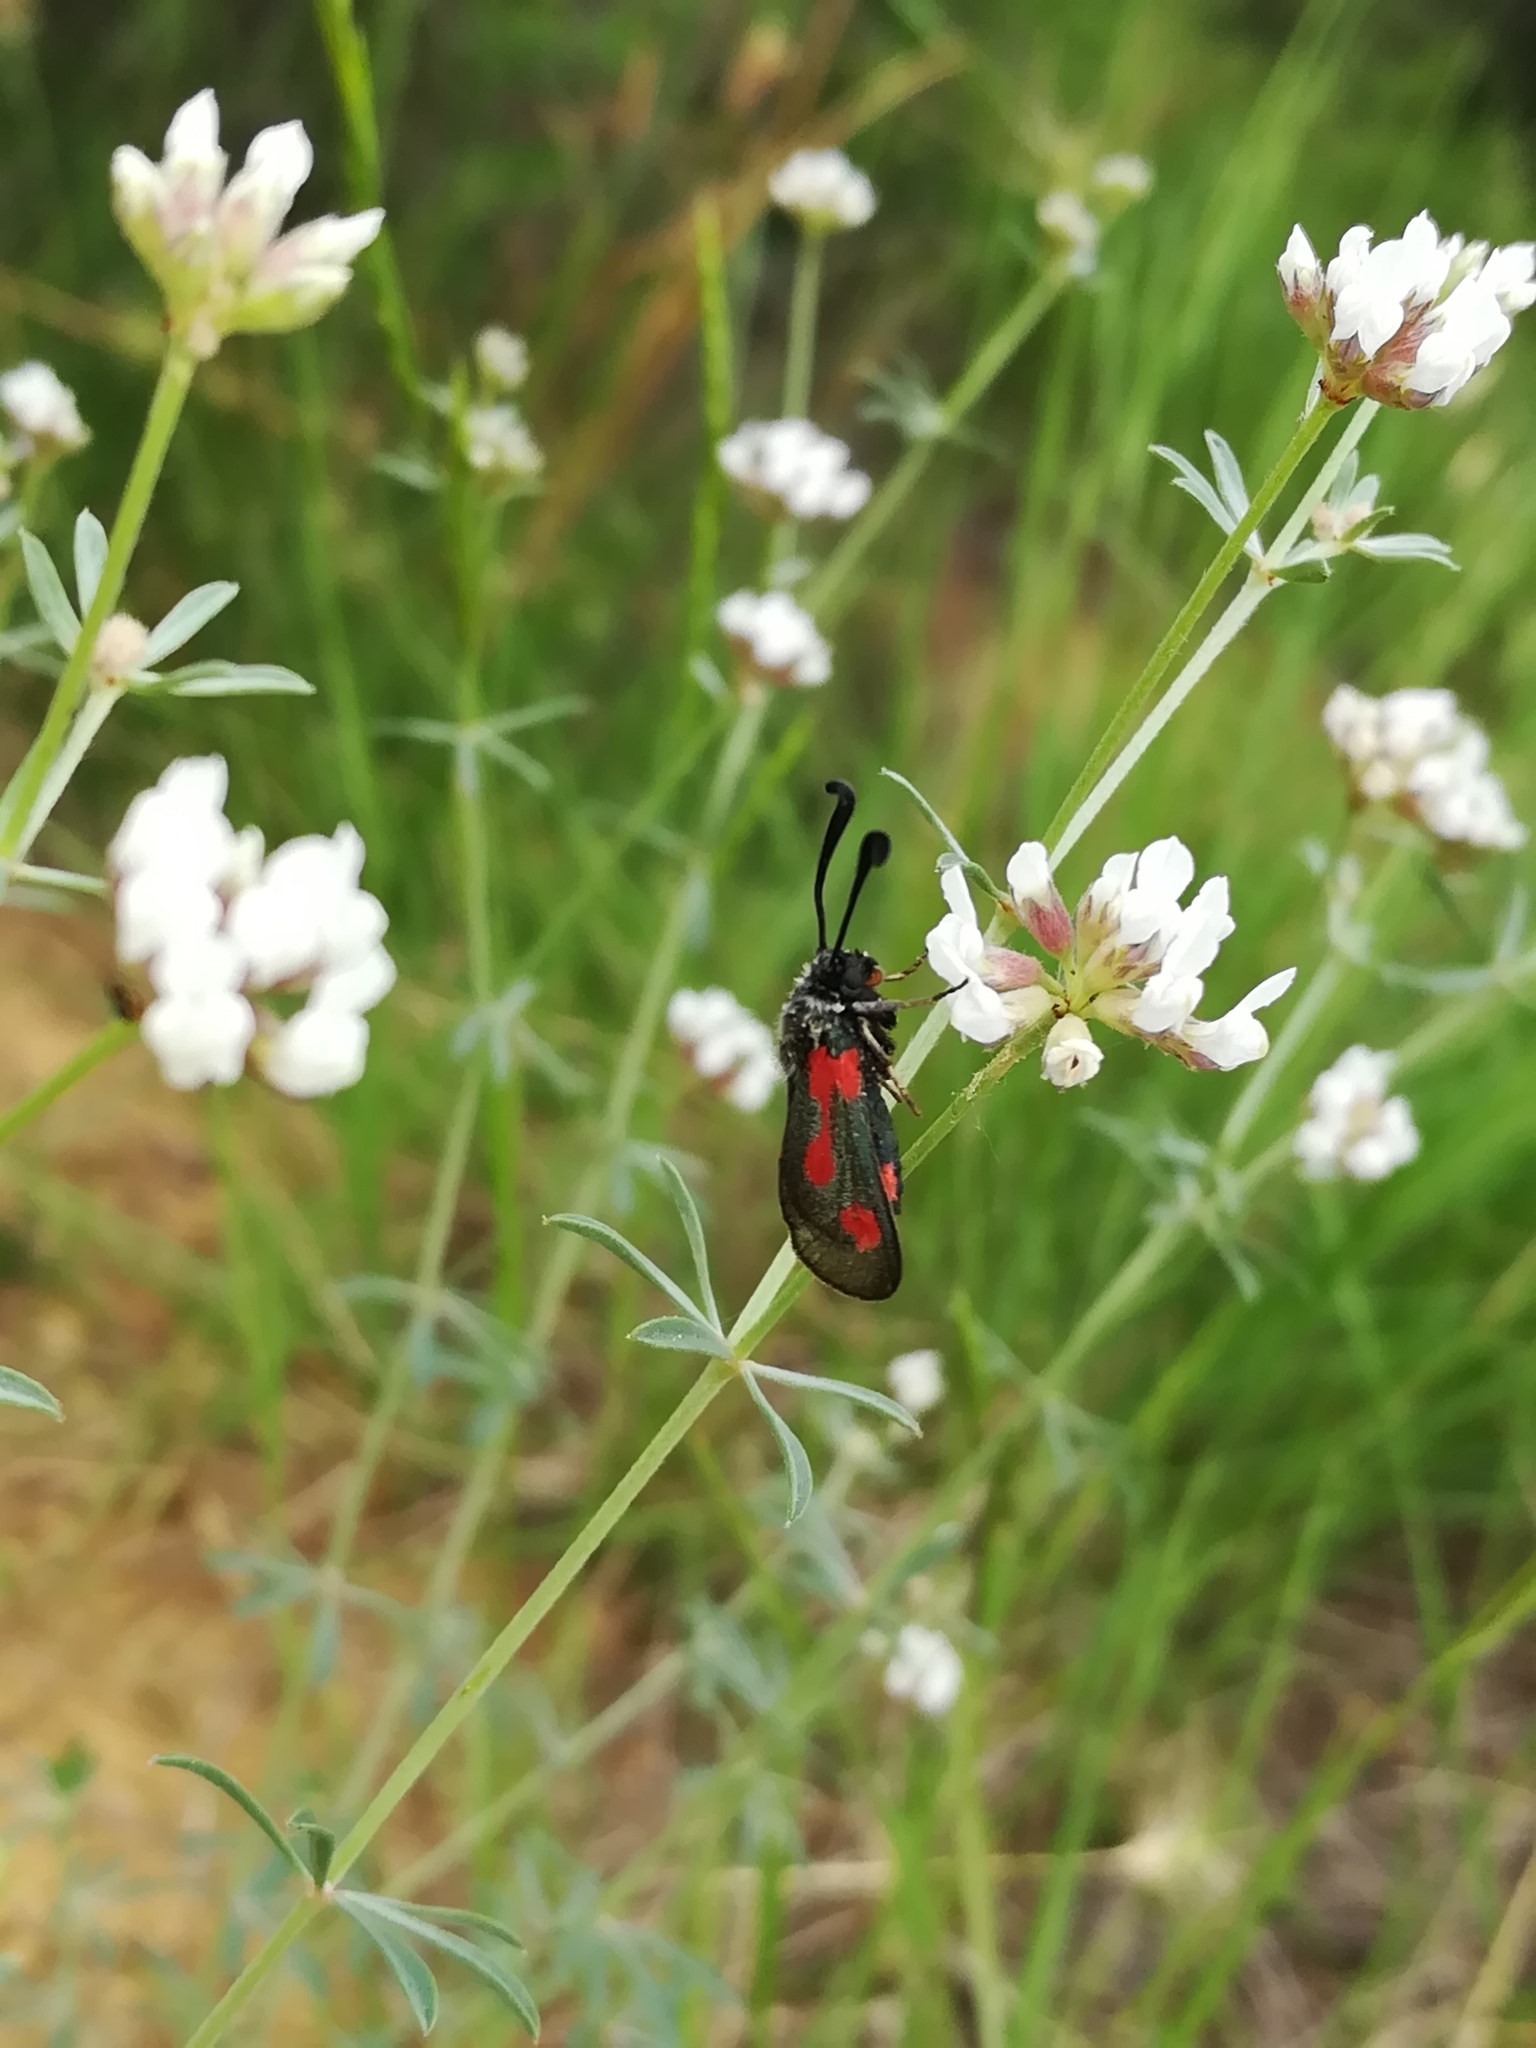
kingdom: Animalia
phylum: Arthropoda
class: Insecta
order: Lepidoptera
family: Zygaenidae
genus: Zygaena
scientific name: Zygaena sarpedon
